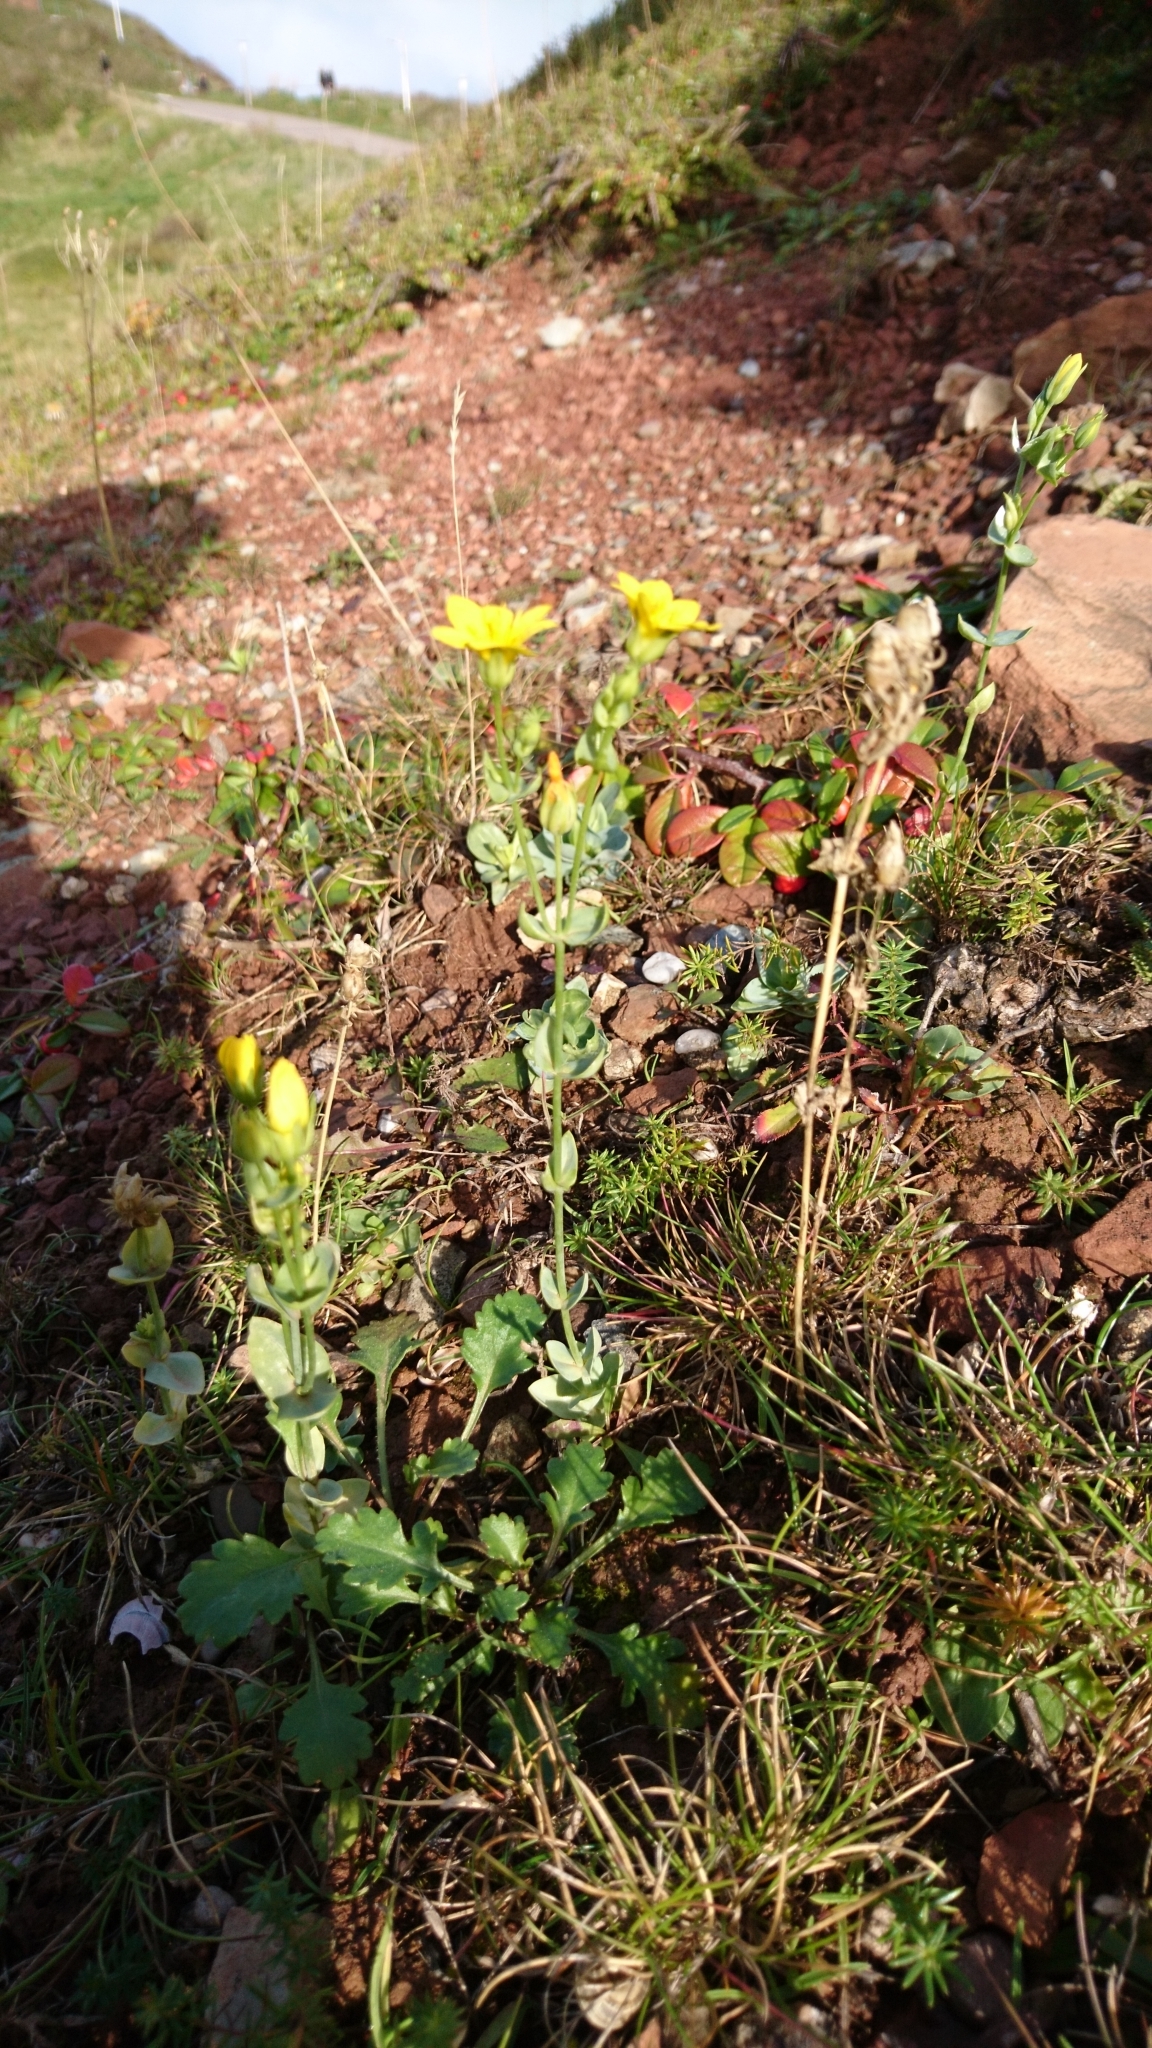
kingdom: Plantae
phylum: Tracheophyta
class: Magnoliopsida
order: Gentianales
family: Gentianaceae
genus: Blackstonia
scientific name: Blackstonia perfoliata
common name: Yellow-wort
